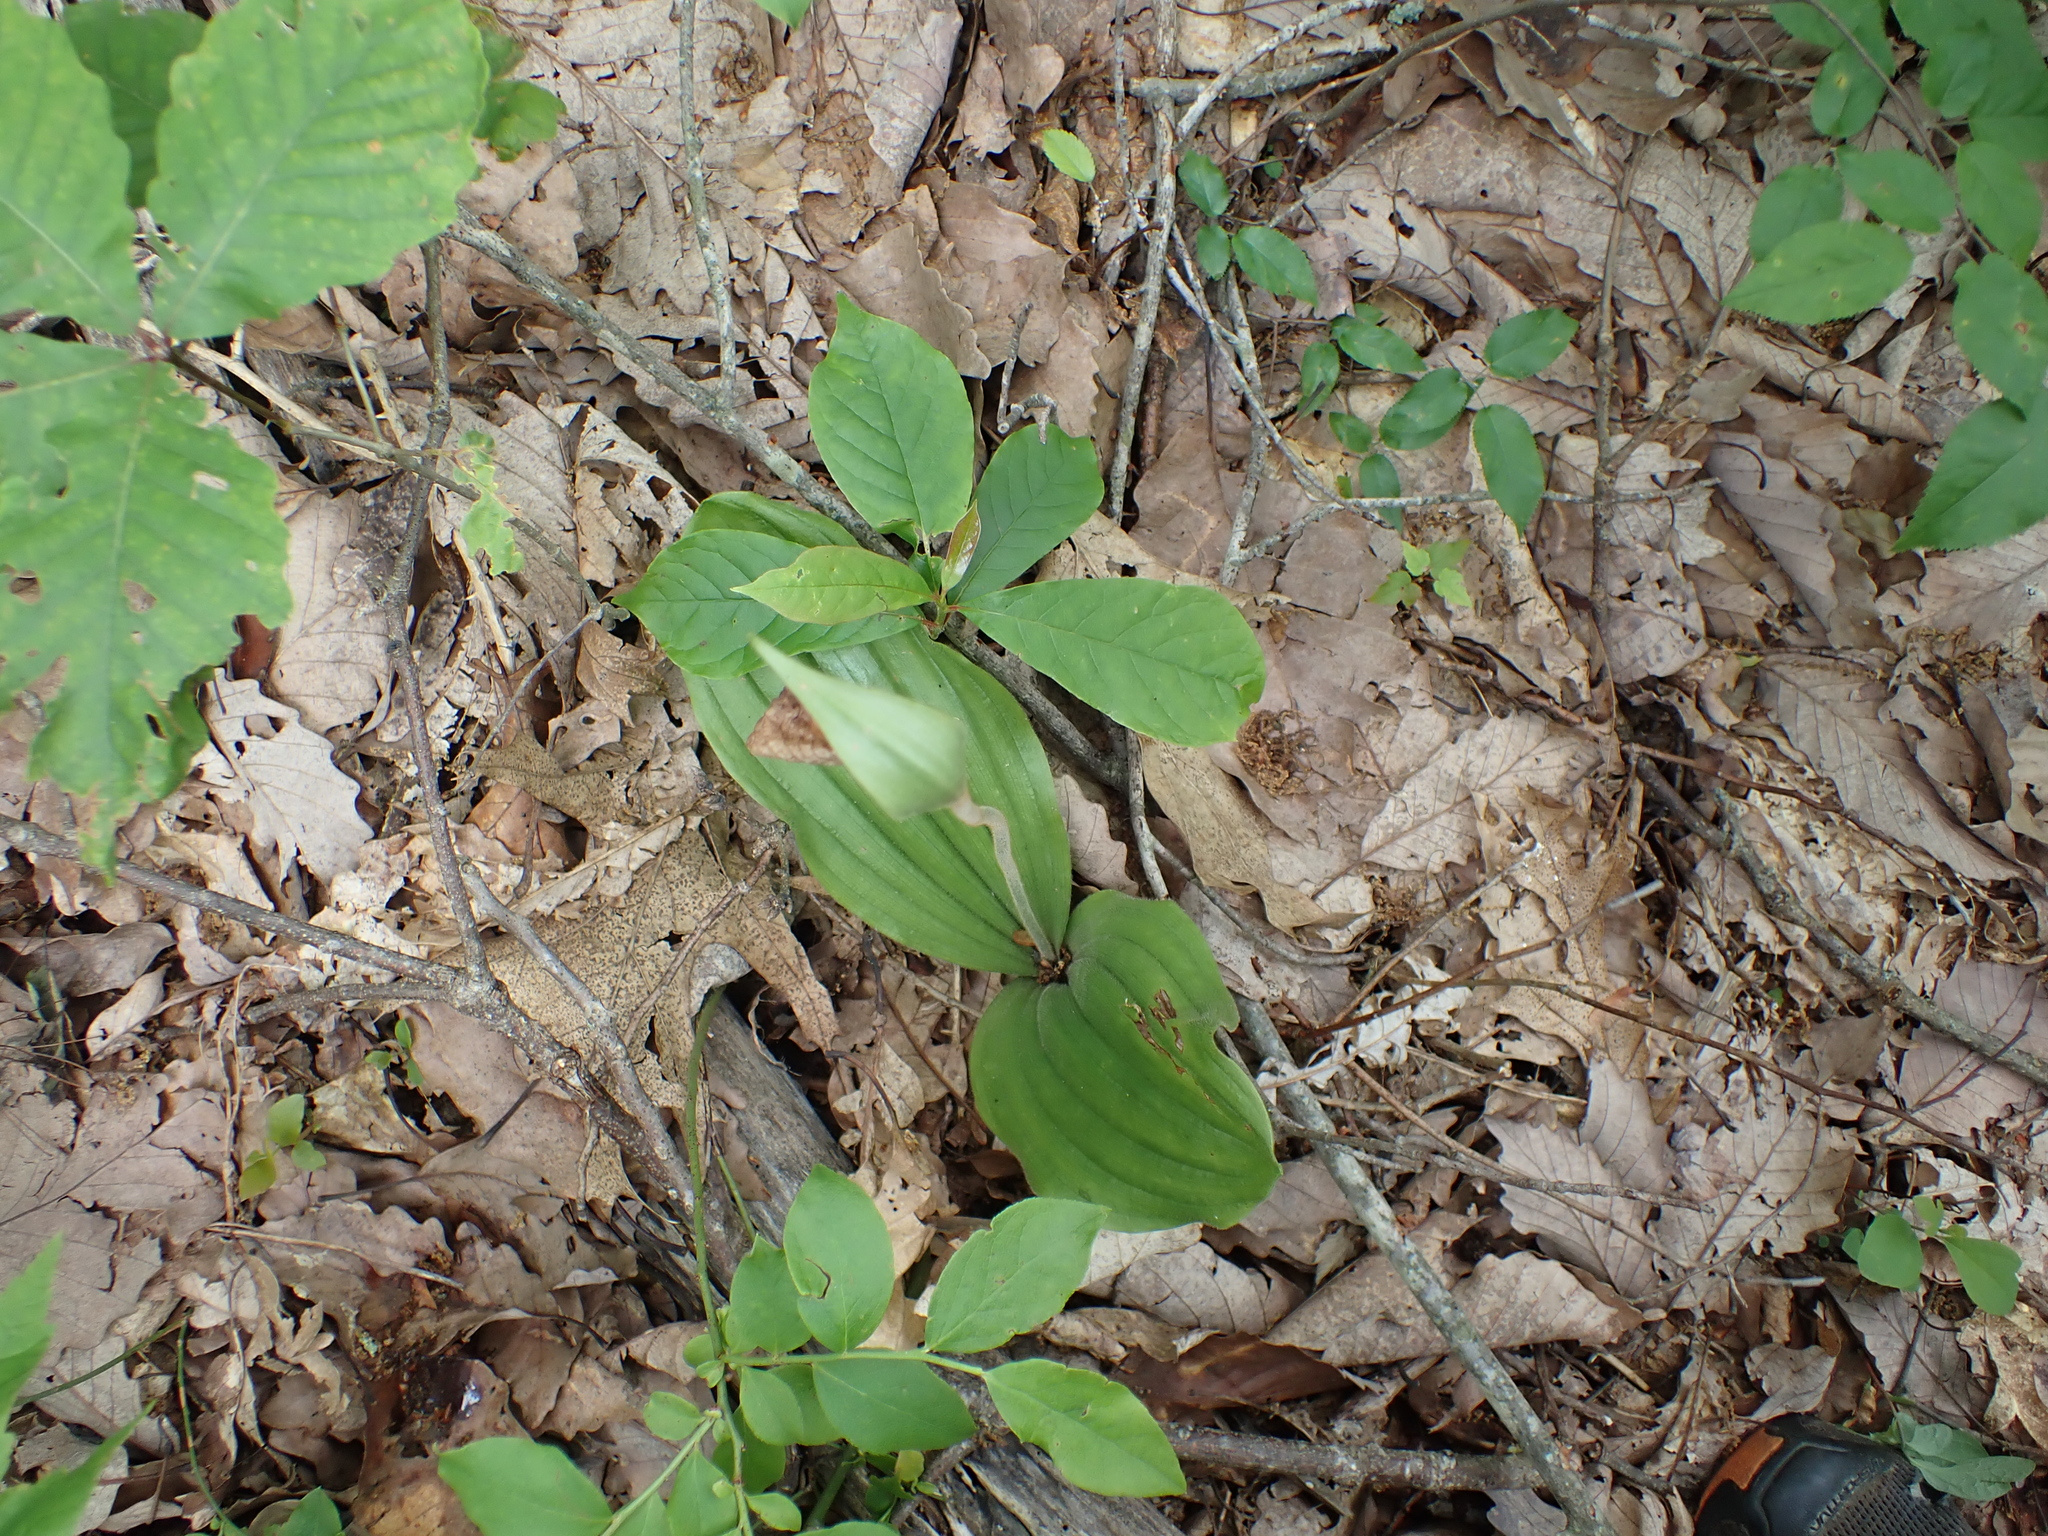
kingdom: Plantae
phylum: Tracheophyta
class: Liliopsida
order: Asparagales
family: Orchidaceae
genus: Cypripedium
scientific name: Cypripedium acaule
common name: Pink lady's-slipper
